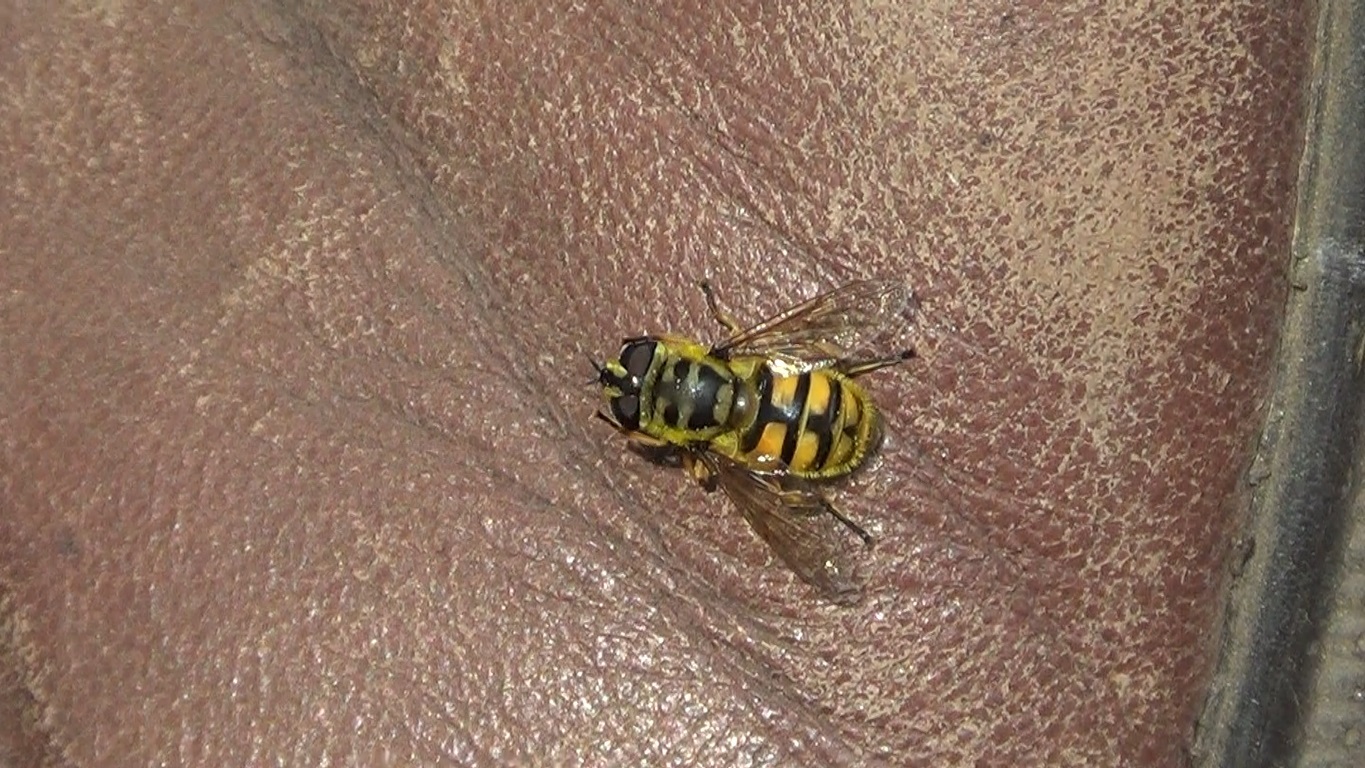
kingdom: Animalia
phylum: Arthropoda
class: Insecta
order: Diptera
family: Syrphidae
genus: Myathropa
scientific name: Myathropa florea
